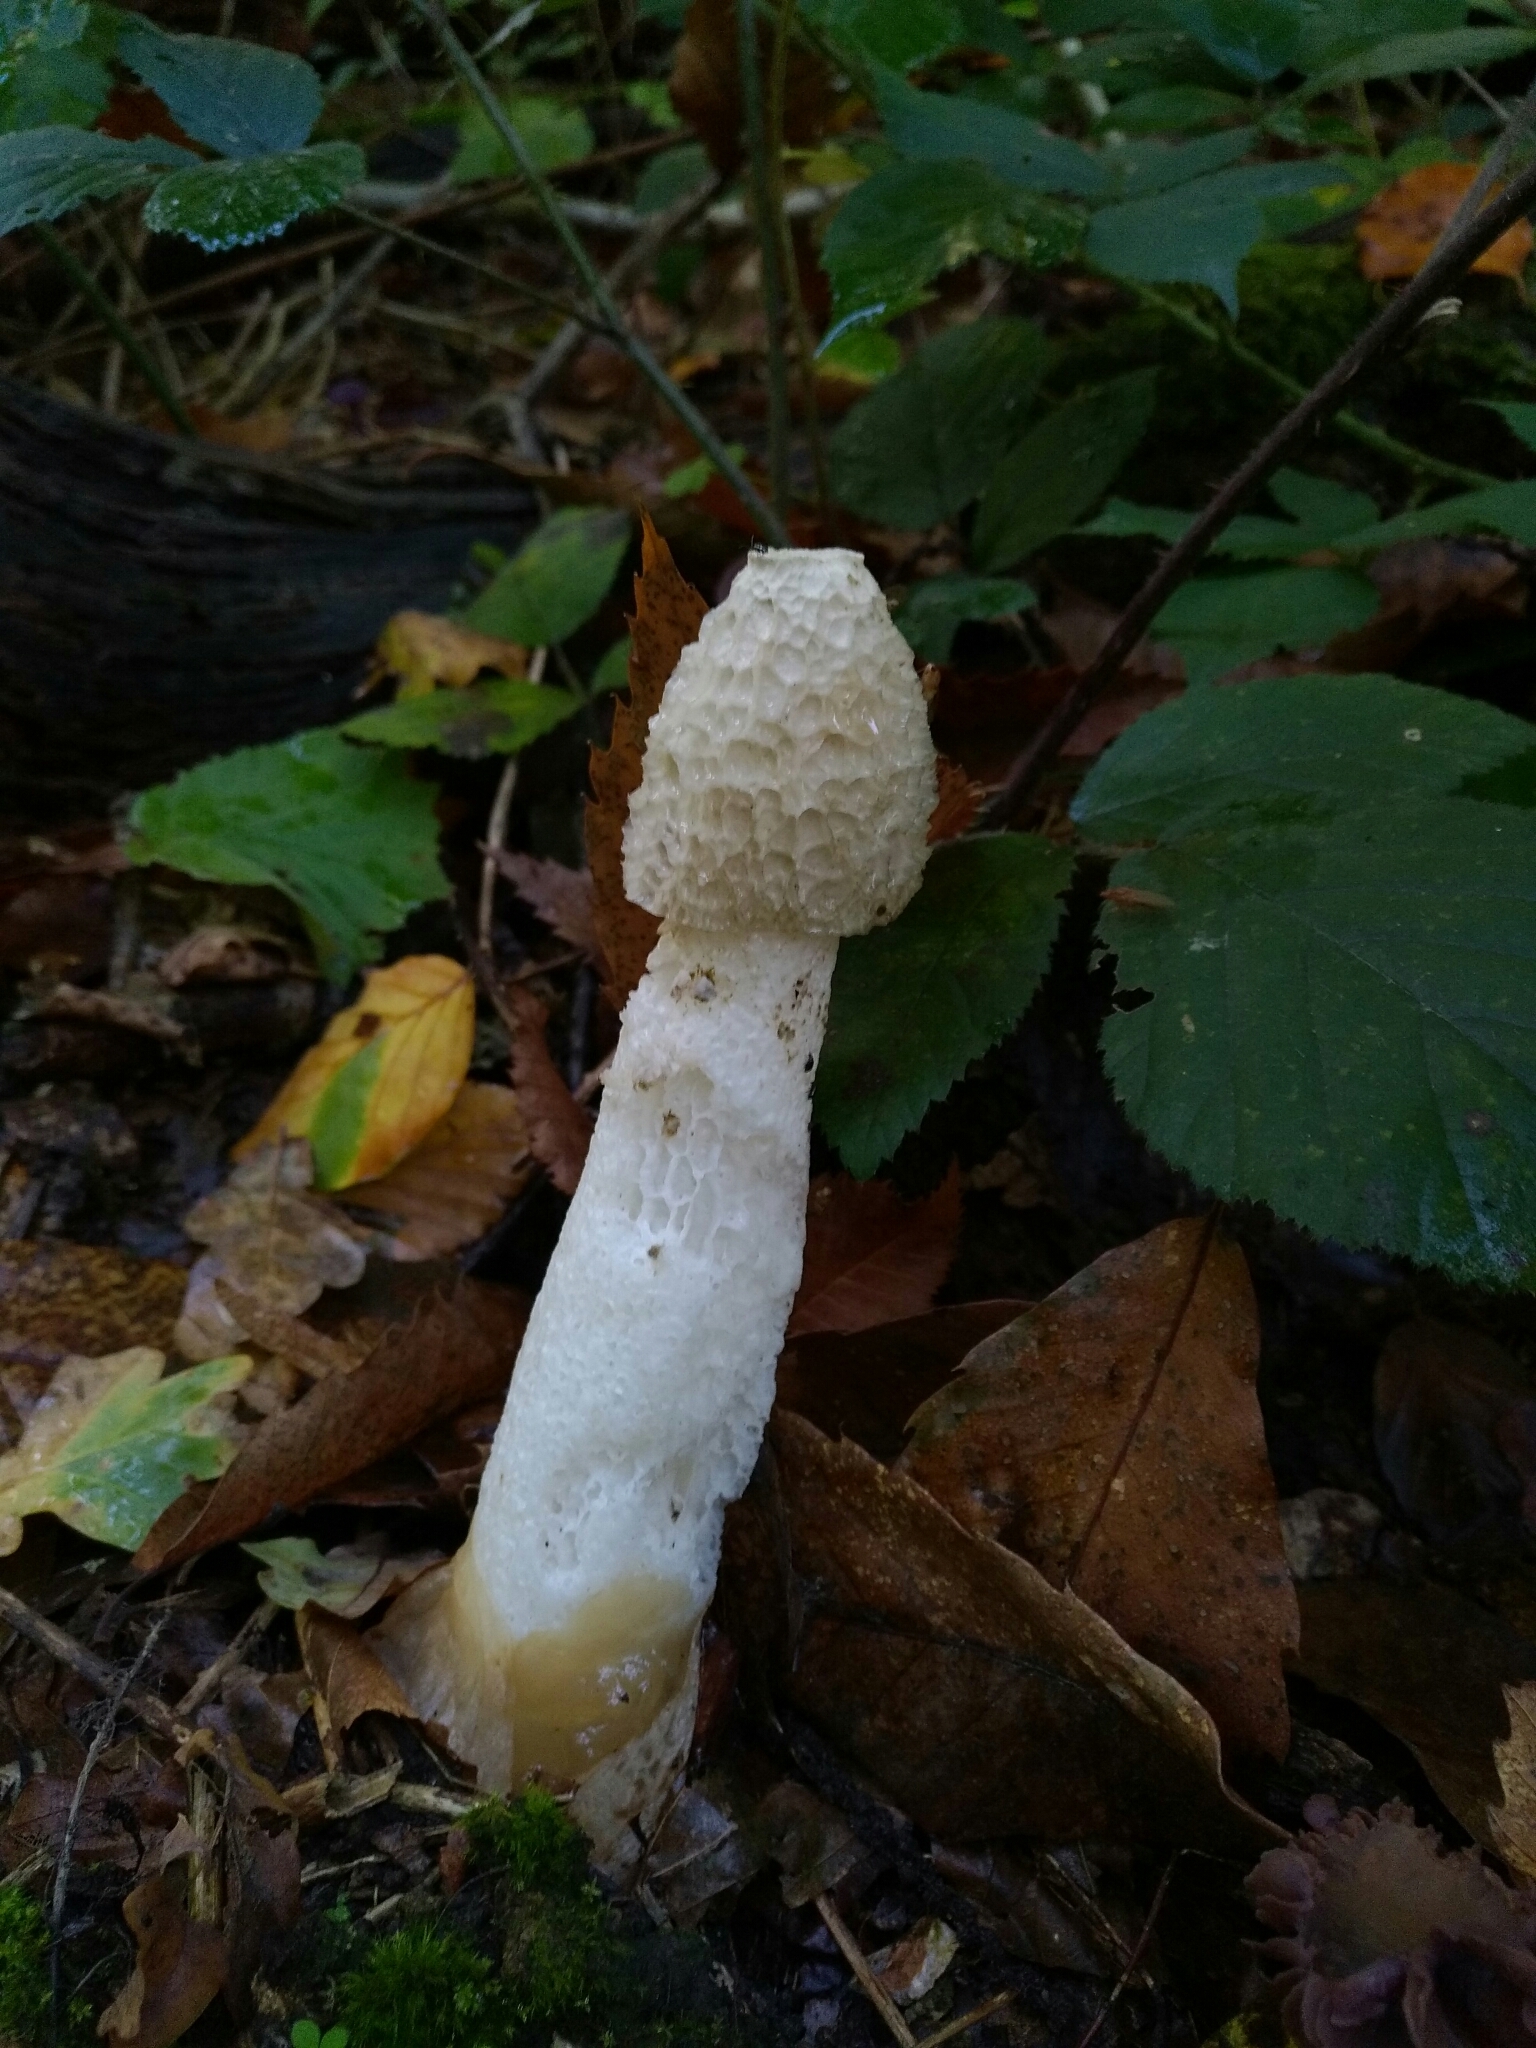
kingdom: Fungi
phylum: Basidiomycota
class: Agaricomycetes
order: Phallales
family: Phallaceae
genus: Phallus
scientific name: Phallus impudicus
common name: Common stinkhorn
